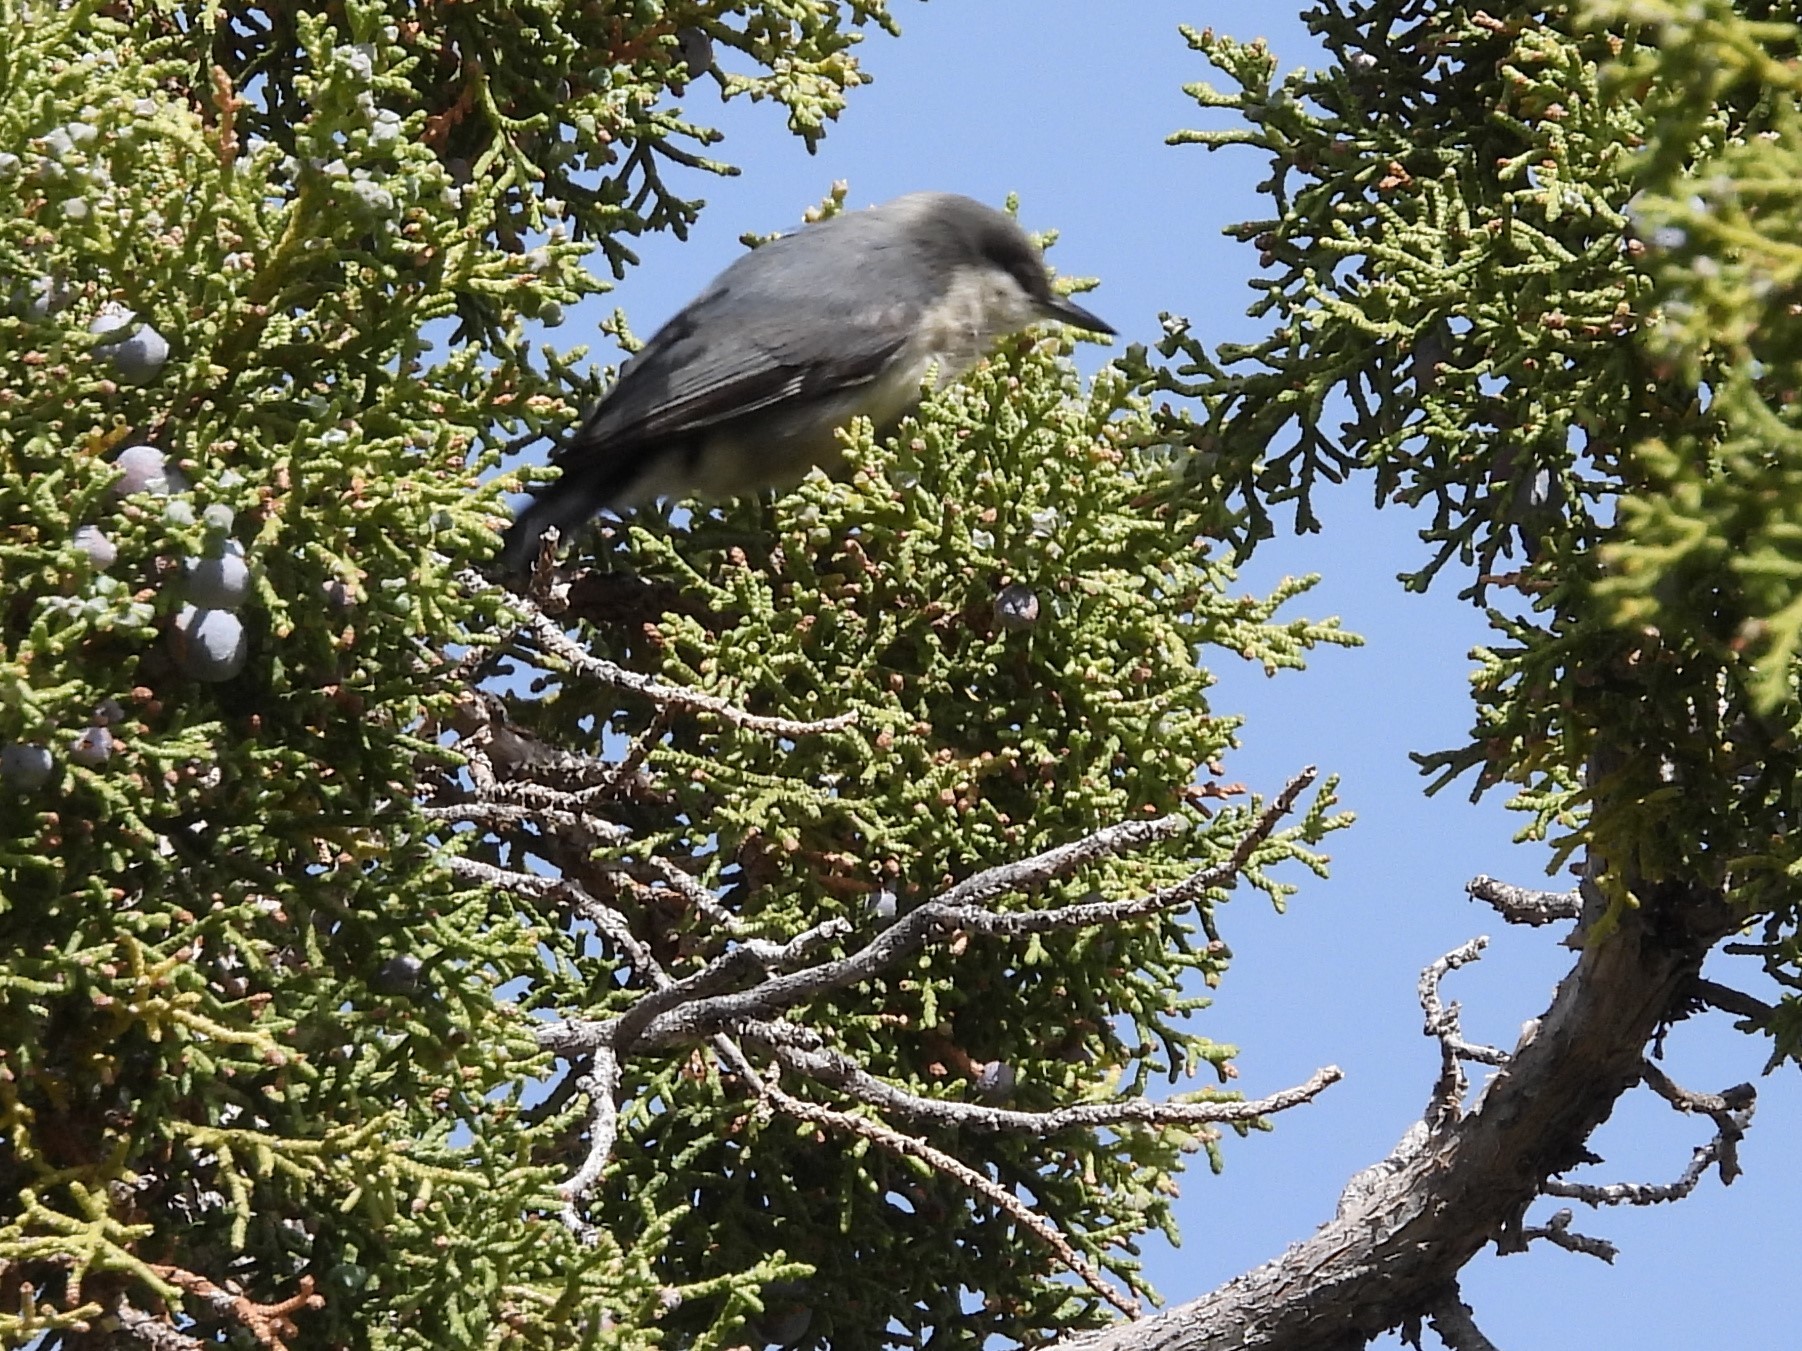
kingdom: Animalia
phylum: Chordata
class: Aves
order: Passeriformes
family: Sittidae
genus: Sitta
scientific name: Sitta pygmaea
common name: Pygmy nuthatch
